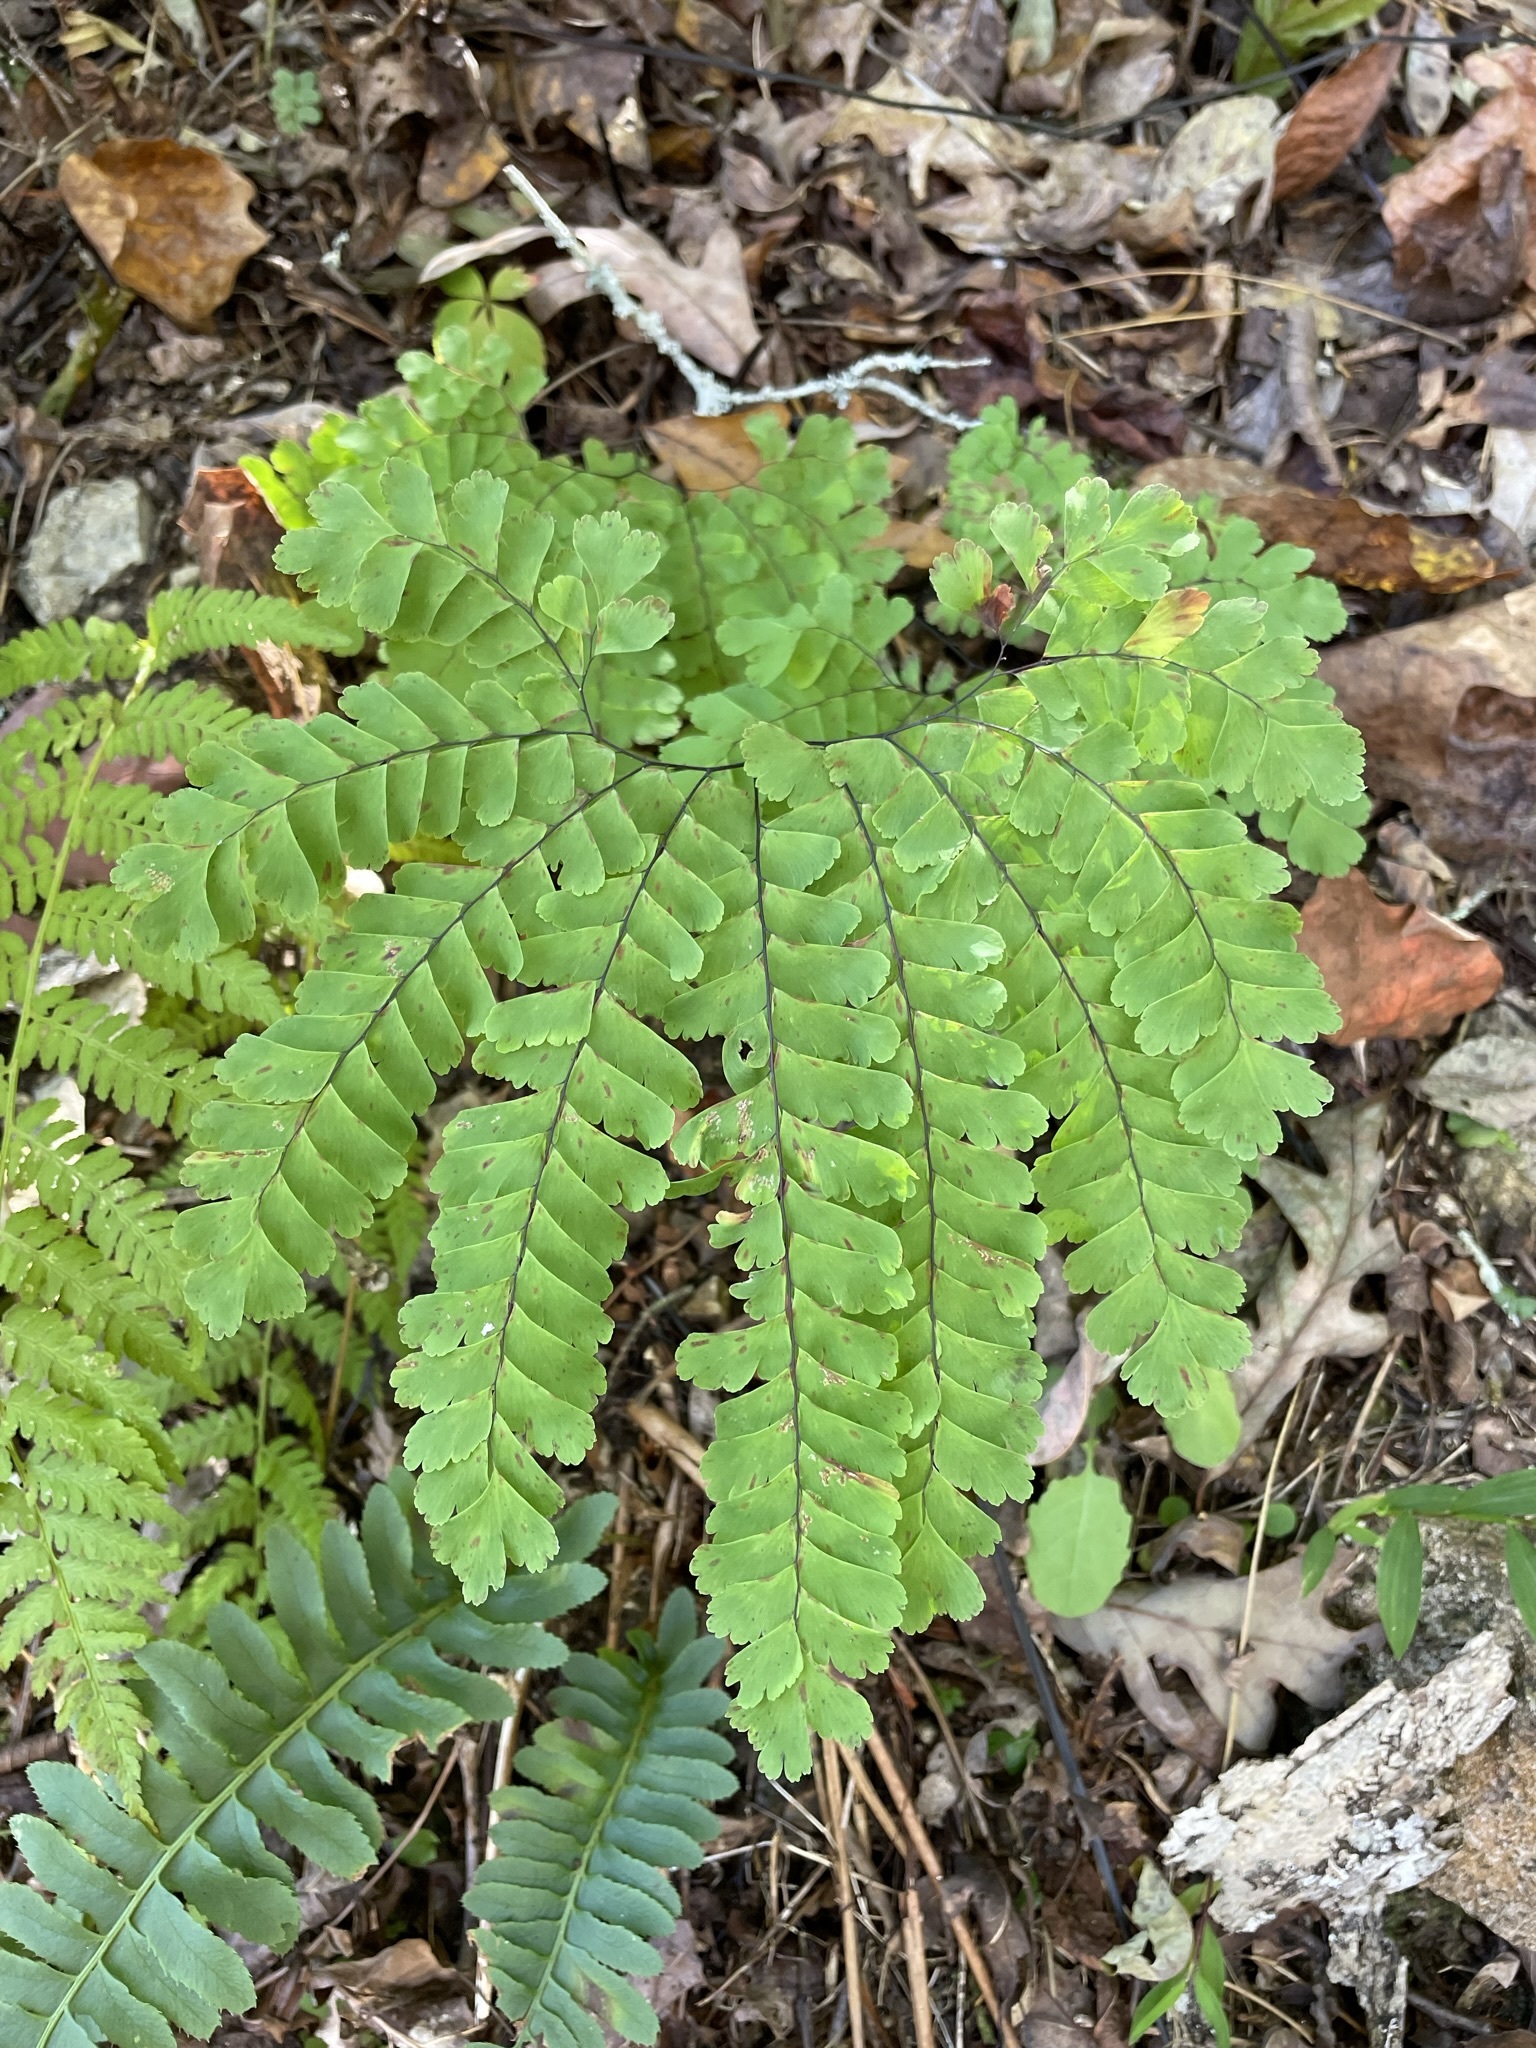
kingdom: Plantae
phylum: Tracheophyta
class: Polypodiopsida
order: Polypodiales
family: Pteridaceae
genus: Adiantum
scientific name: Adiantum pedatum
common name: Five-finger fern
